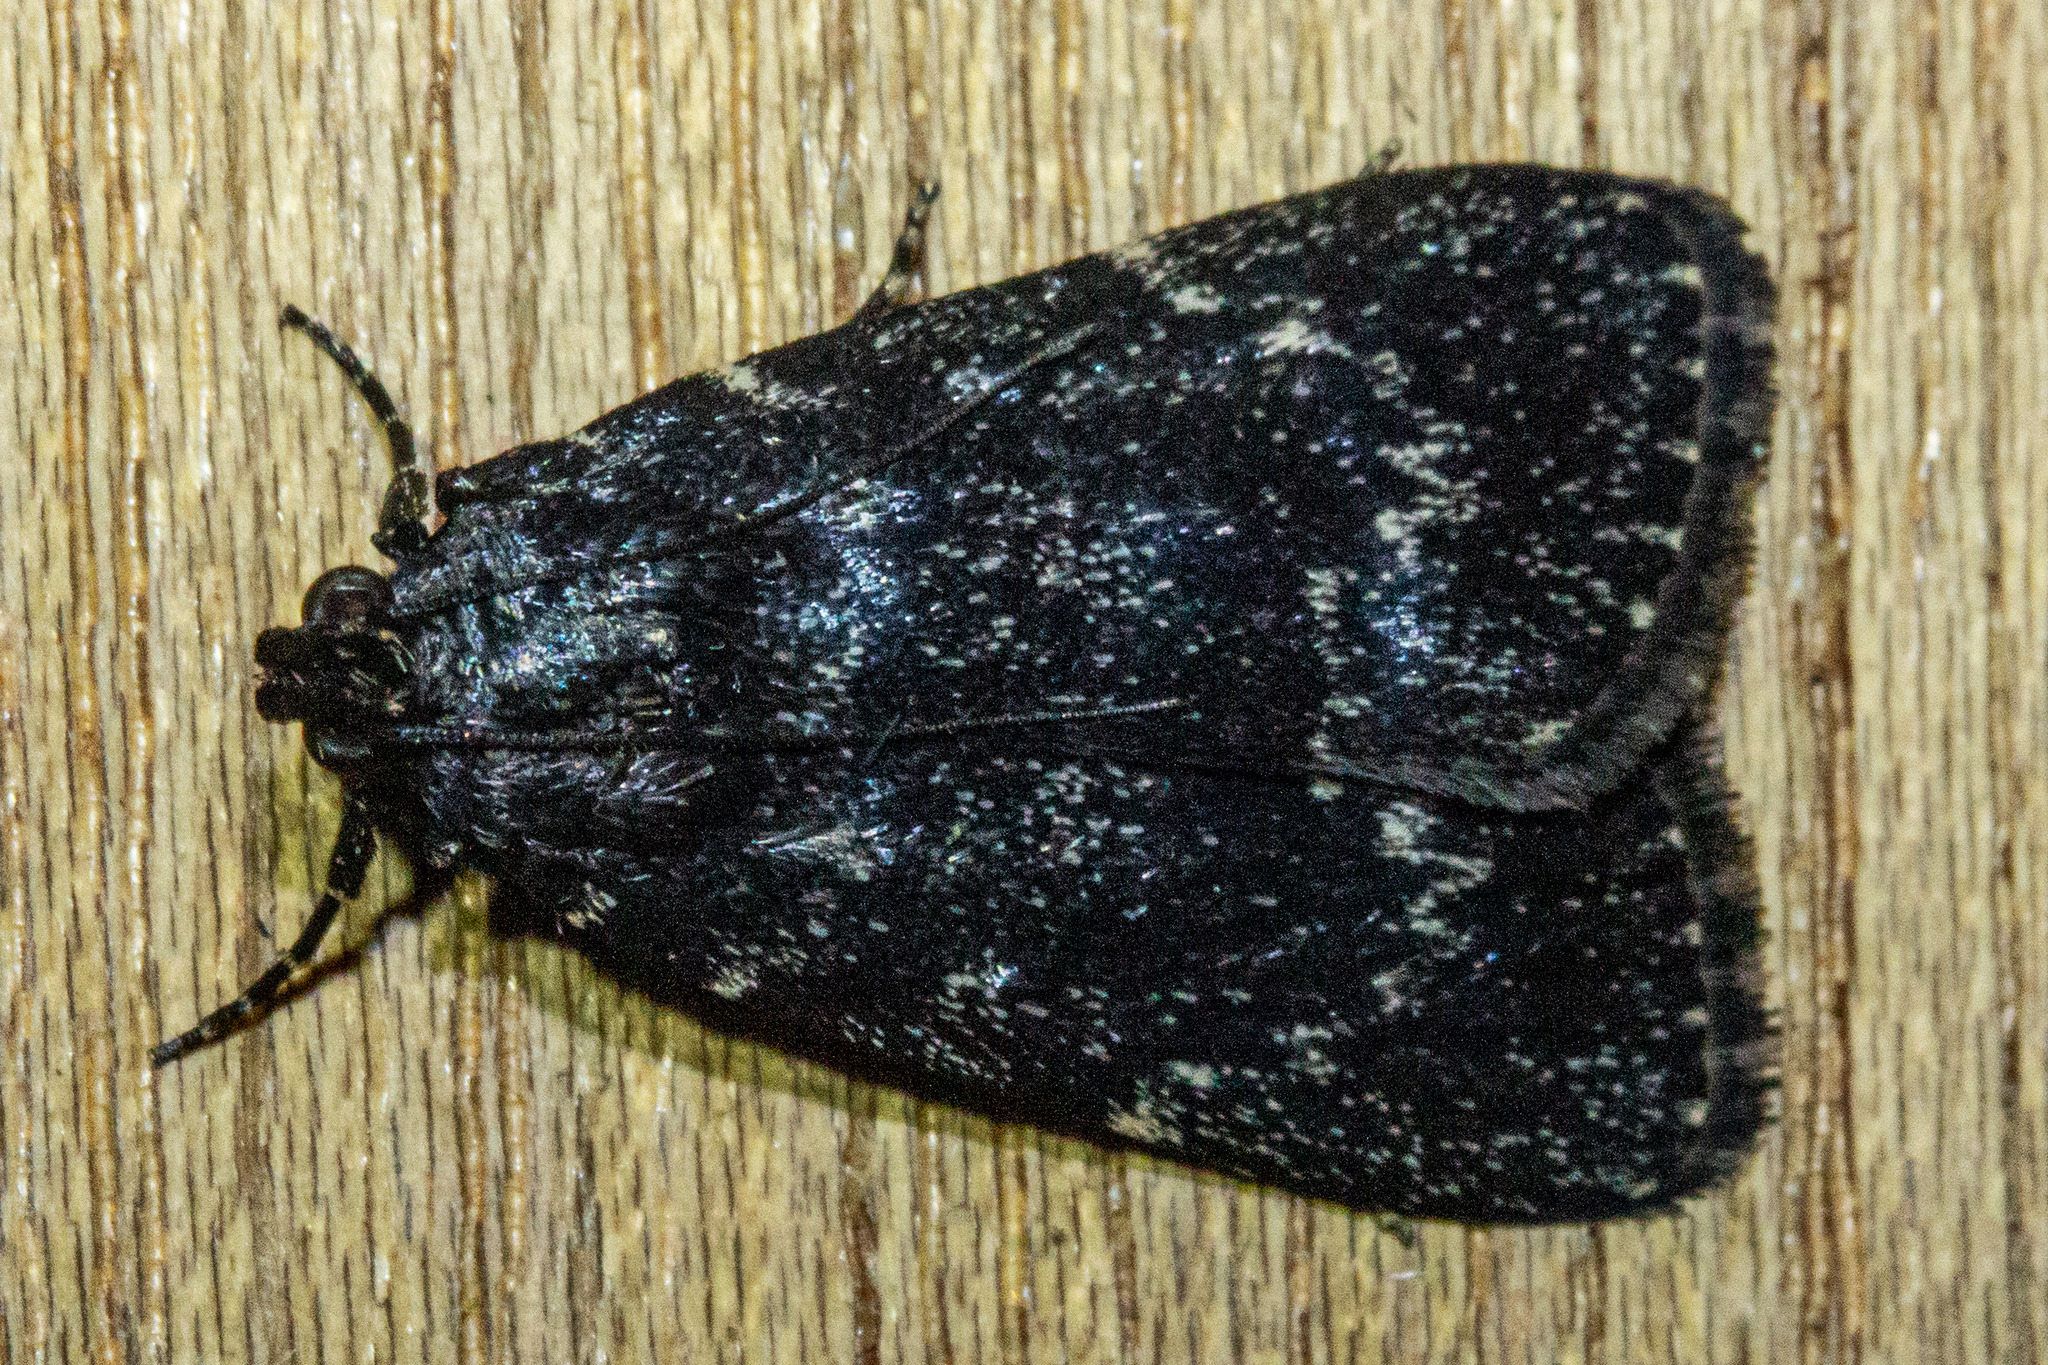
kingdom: Animalia
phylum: Arthropoda
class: Insecta
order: Lepidoptera
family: Pyralidae
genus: Stericta
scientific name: Stericta carbonalis
